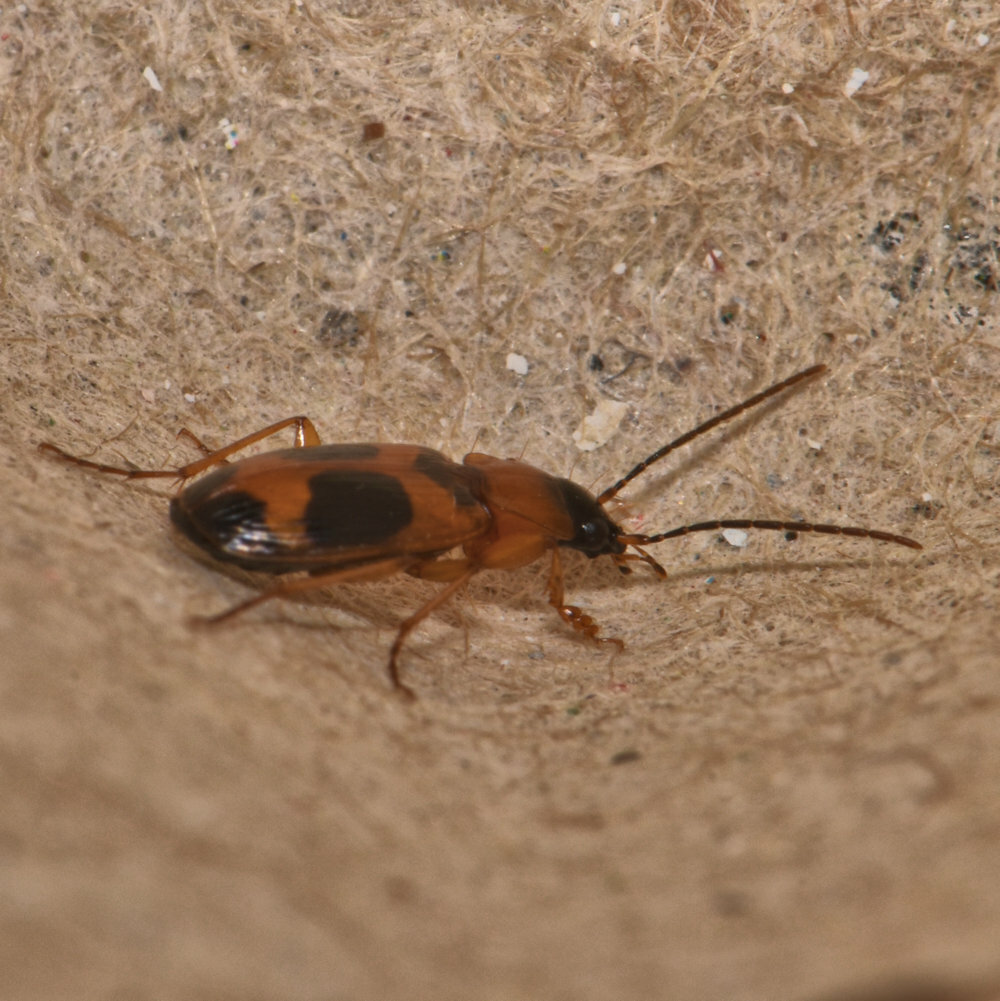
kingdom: Animalia
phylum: Arthropoda
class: Insecta
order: Coleoptera
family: Carabidae
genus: Badister
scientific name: Badister neopulchellus
